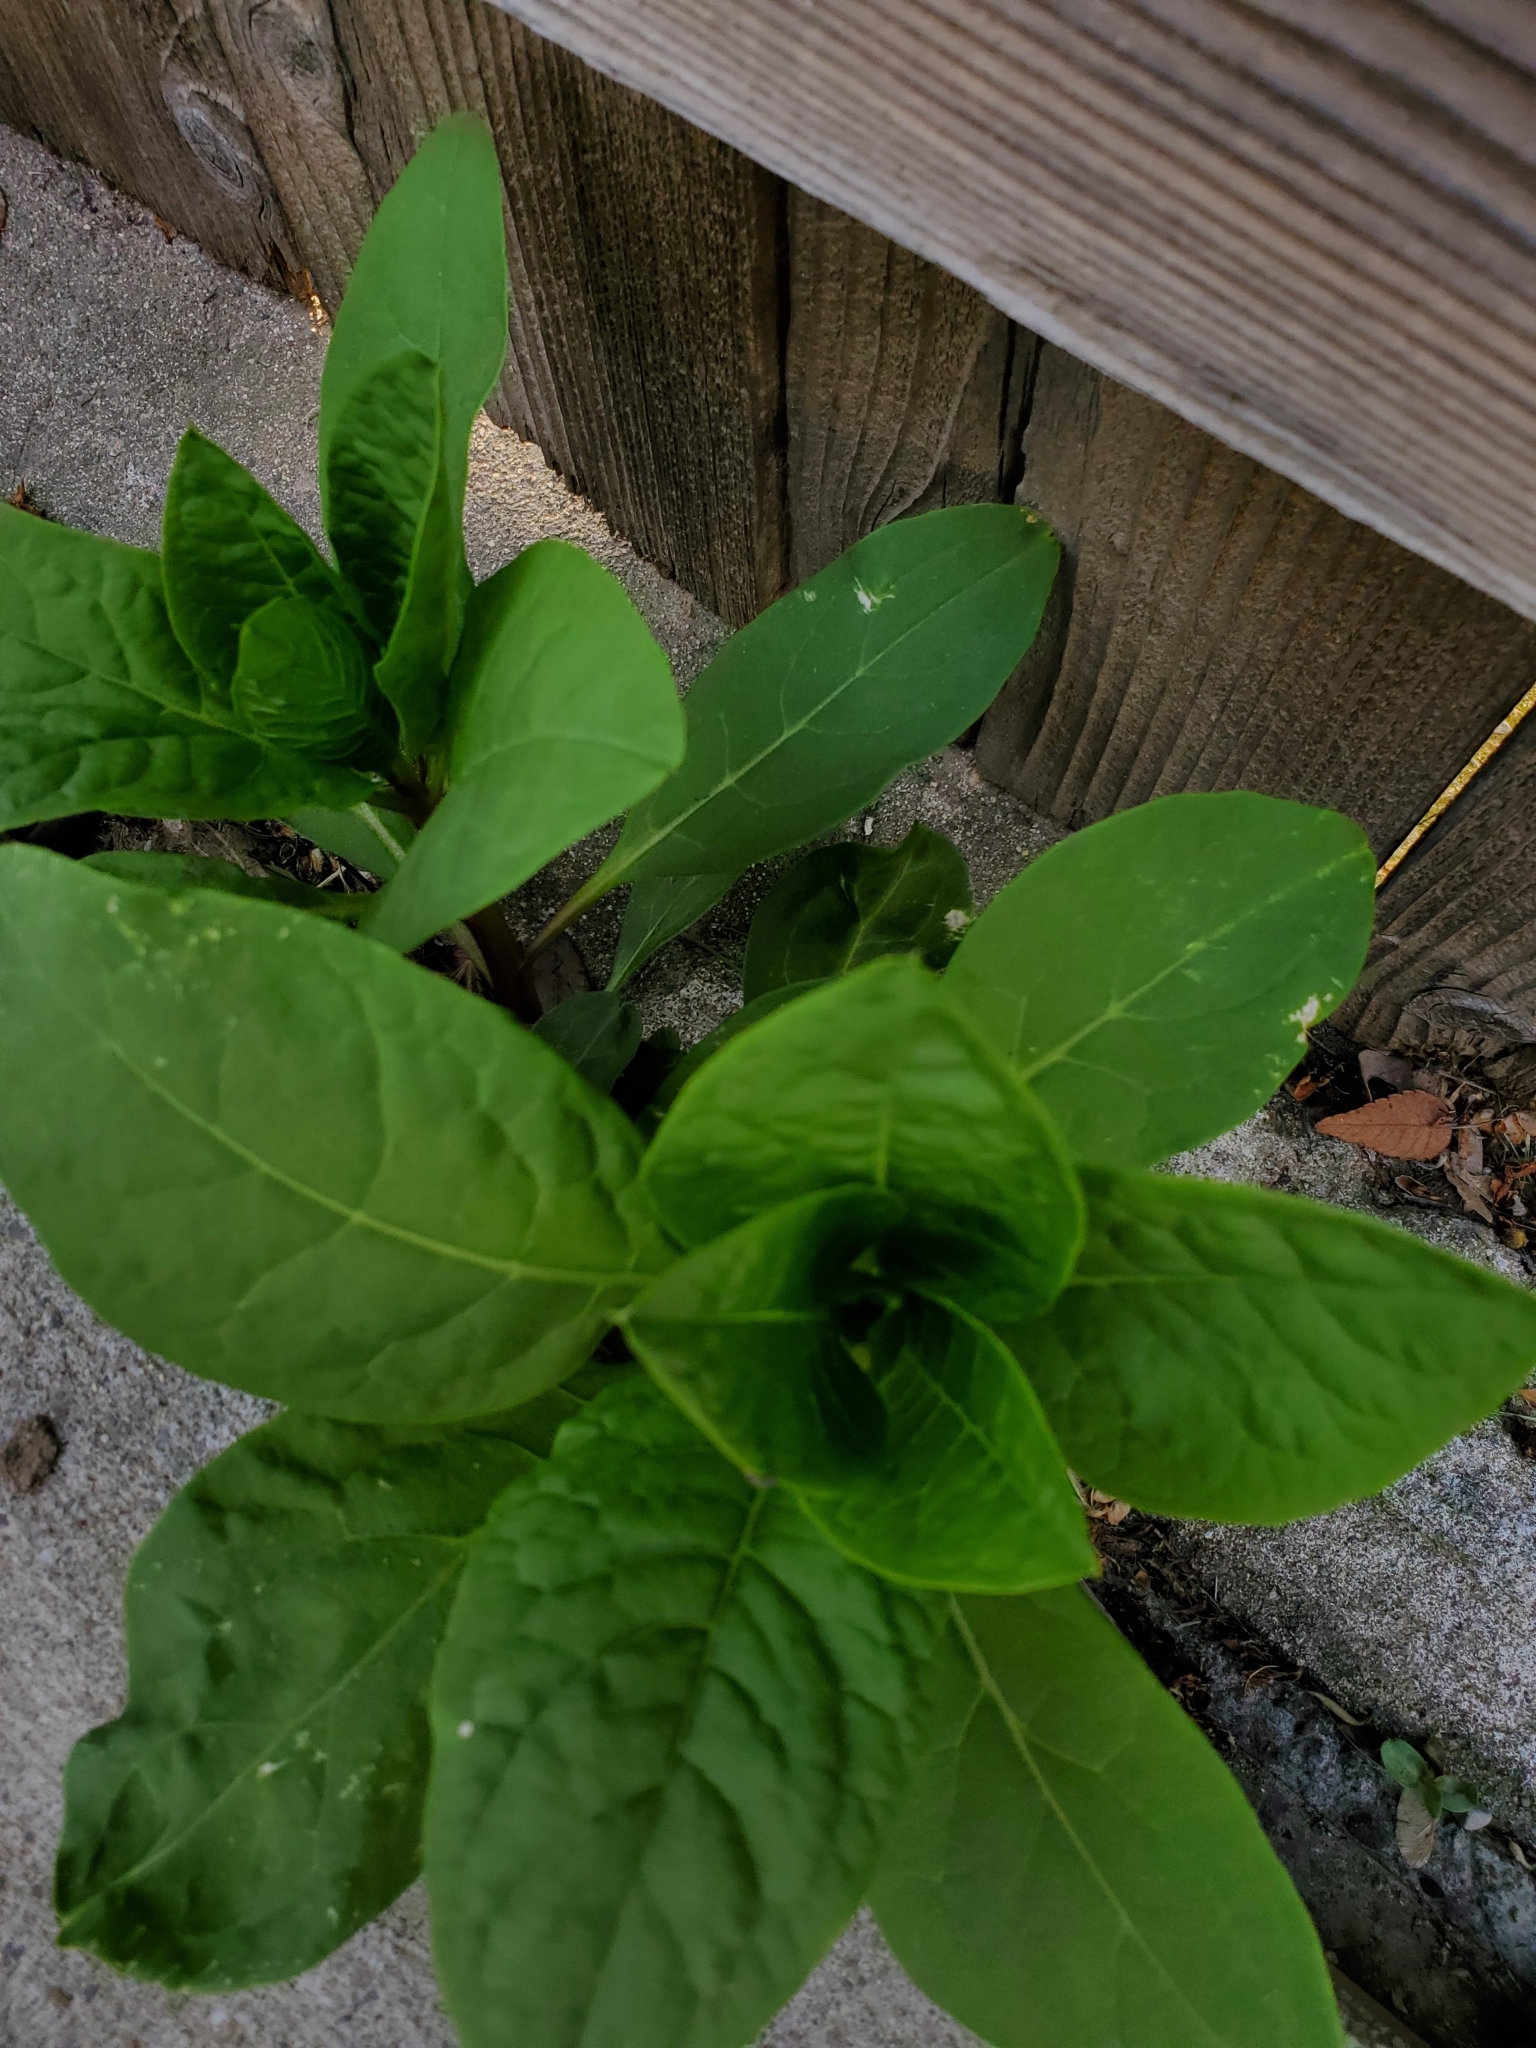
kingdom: Plantae
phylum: Tracheophyta
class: Magnoliopsida
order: Caryophyllales
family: Phytolaccaceae
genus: Phytolacca
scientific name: Phytolacca americana
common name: American pokeweed
